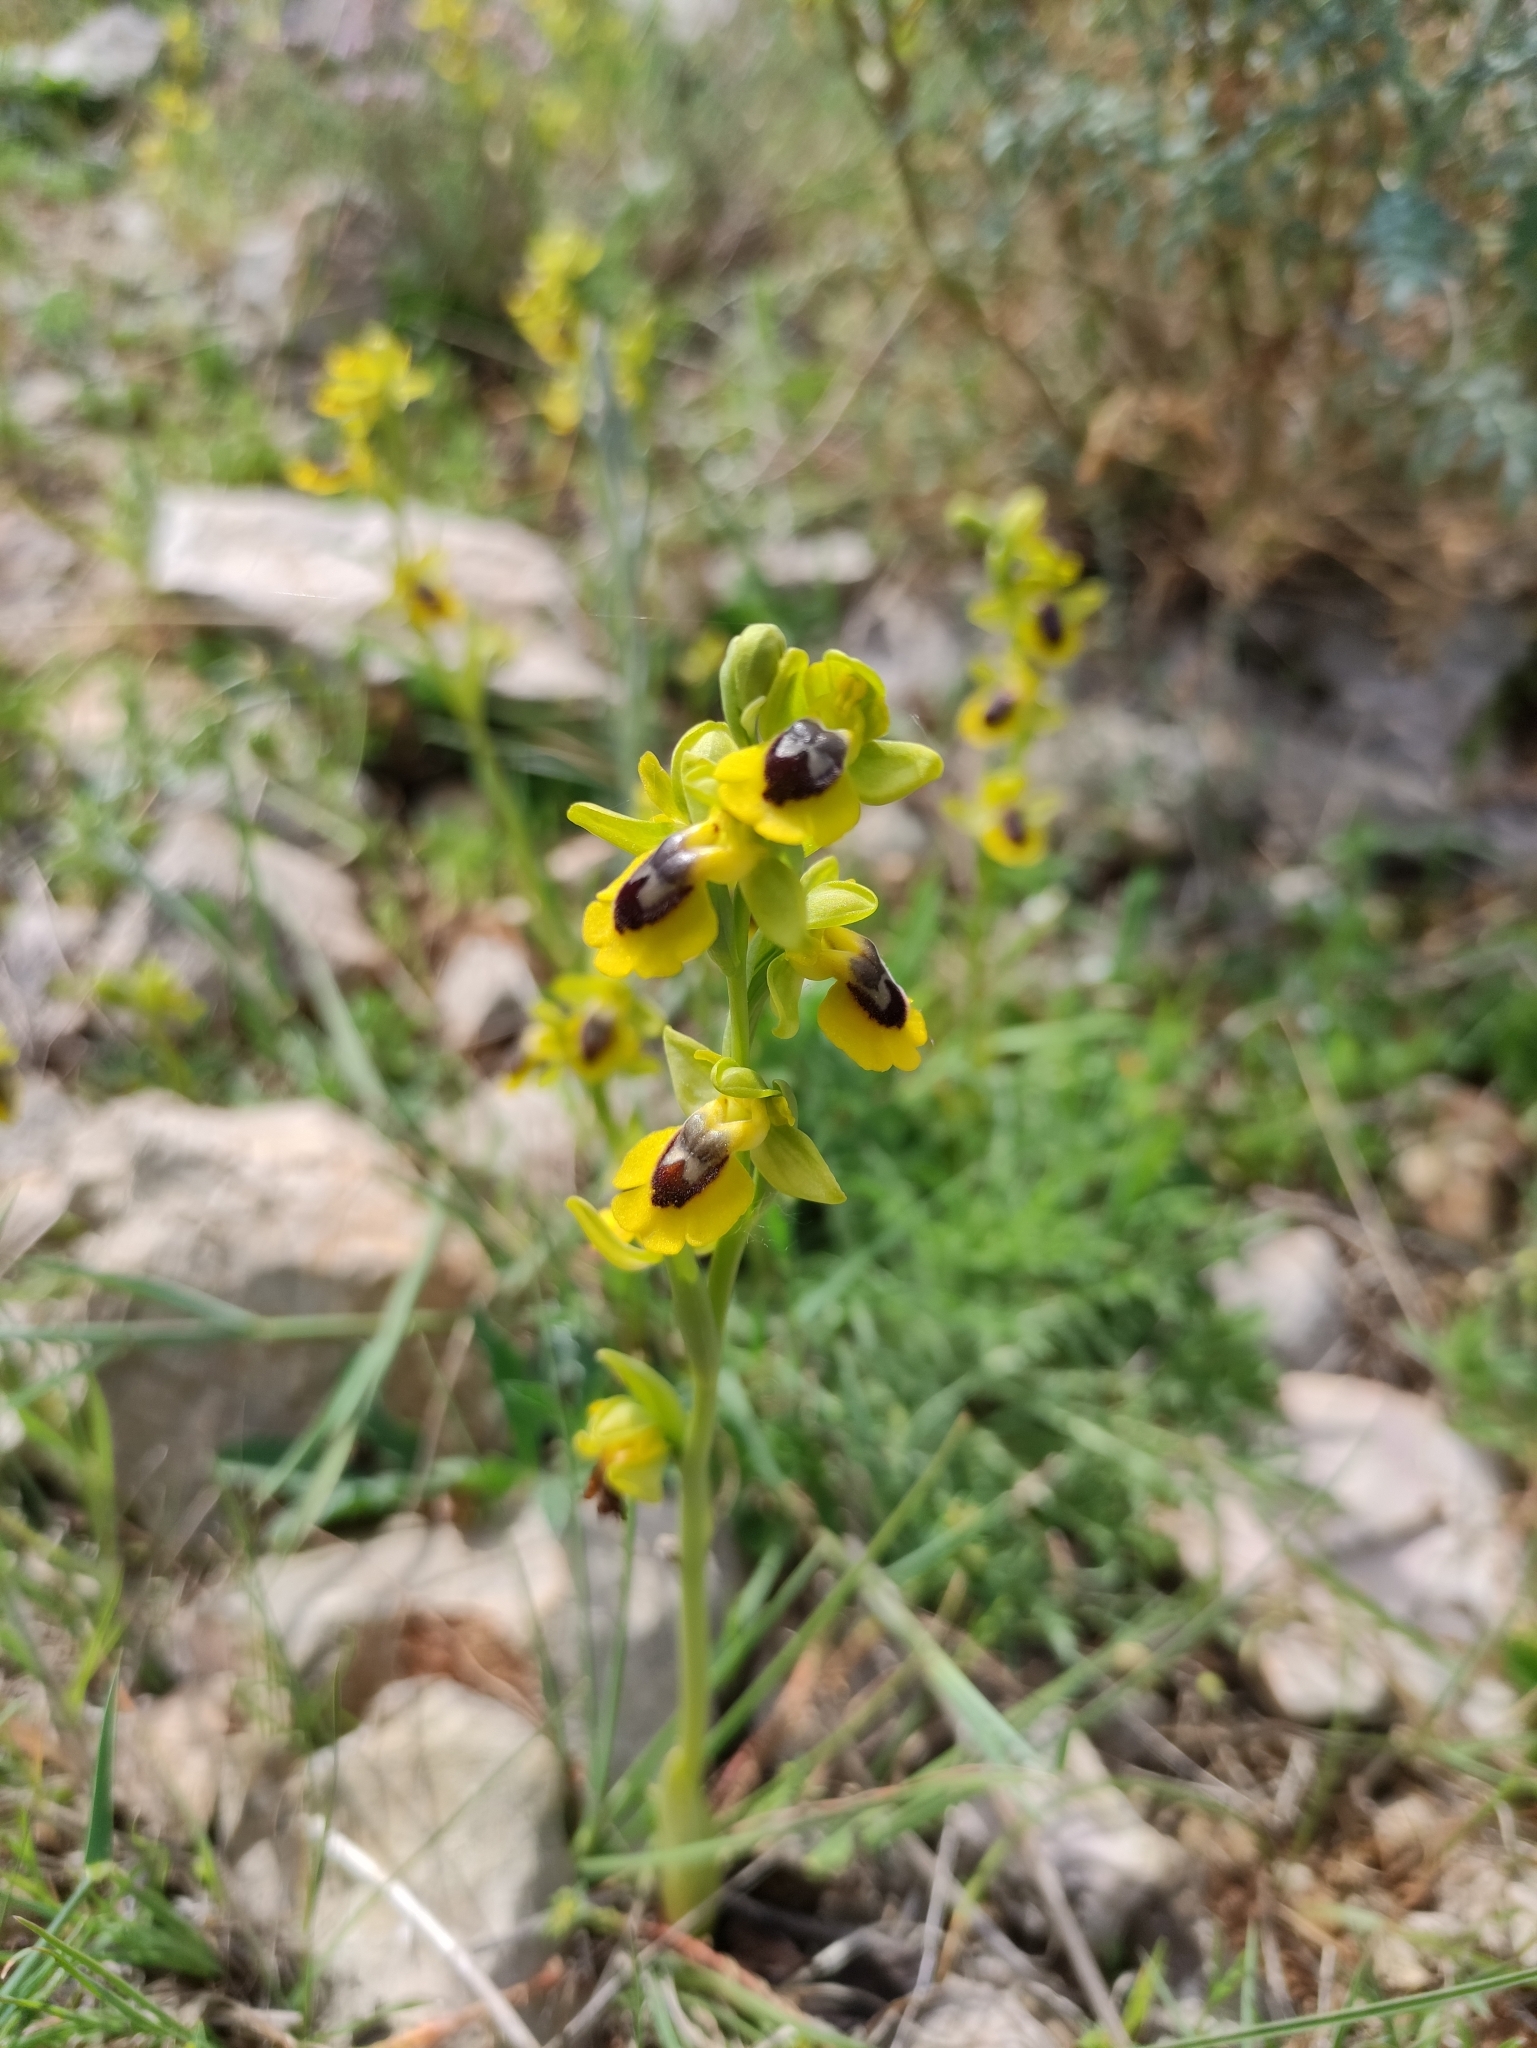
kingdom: Plantae
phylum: Tracheophyta
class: Liliopsida
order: Asparagales
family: Orchidaceae
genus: Ophrys
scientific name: Ophrys lutea
